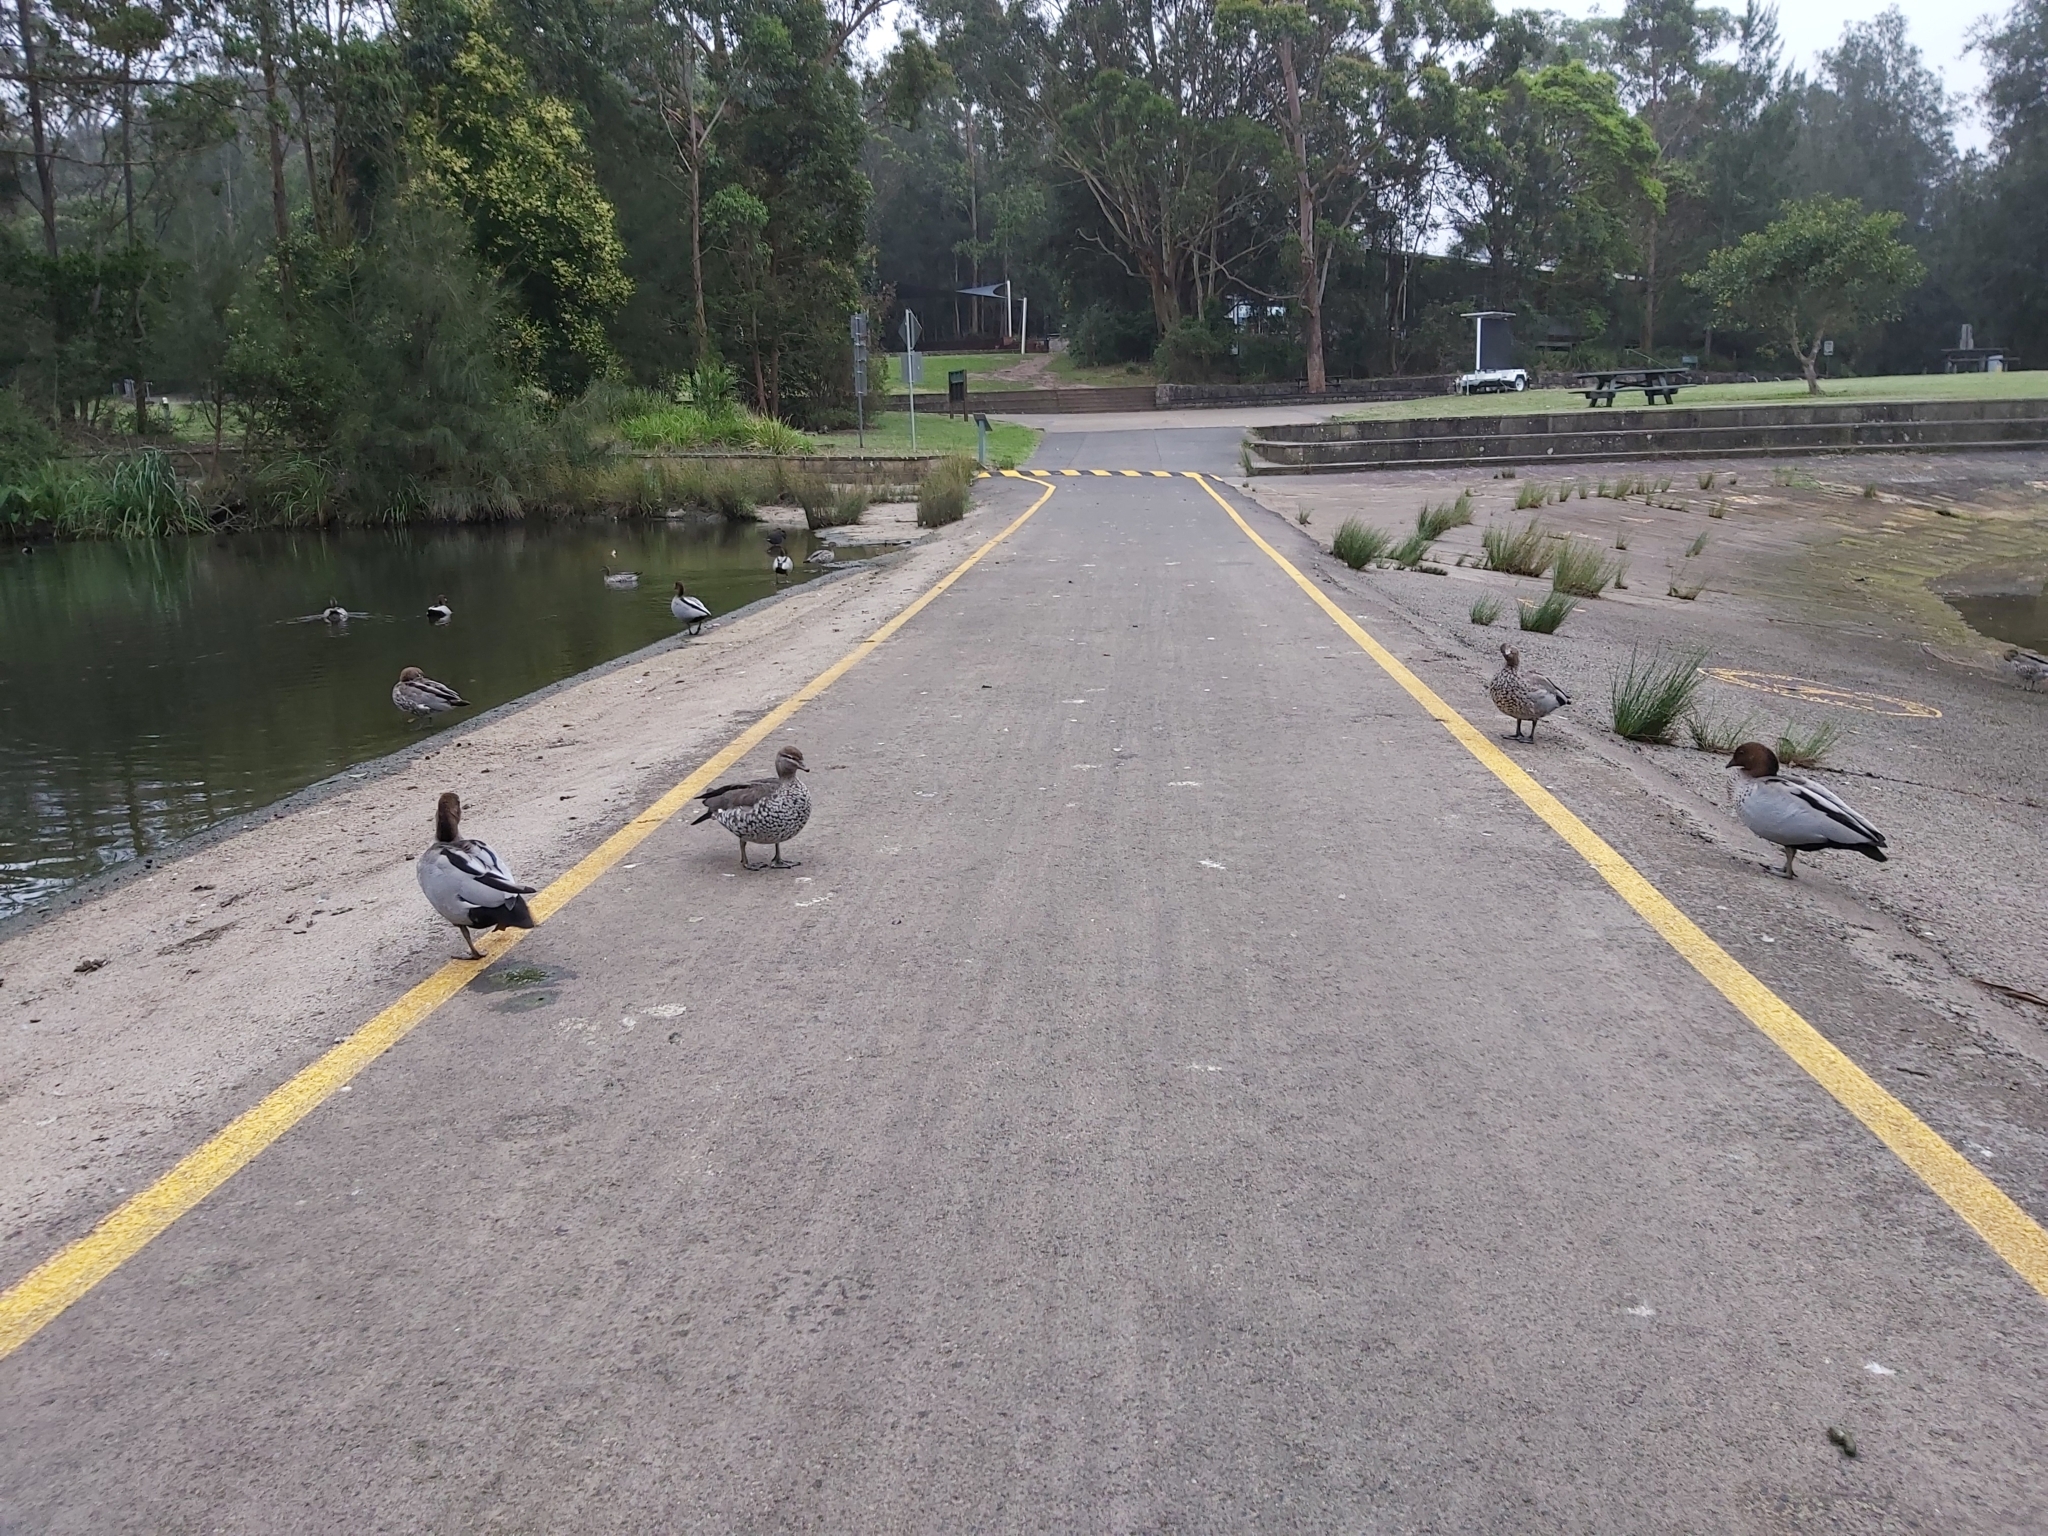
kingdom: Animalia
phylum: Chordata
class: Aves
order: Anseriformes
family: Anatidae
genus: Chenonetta
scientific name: Chenonetta jubata
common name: Maned duck
